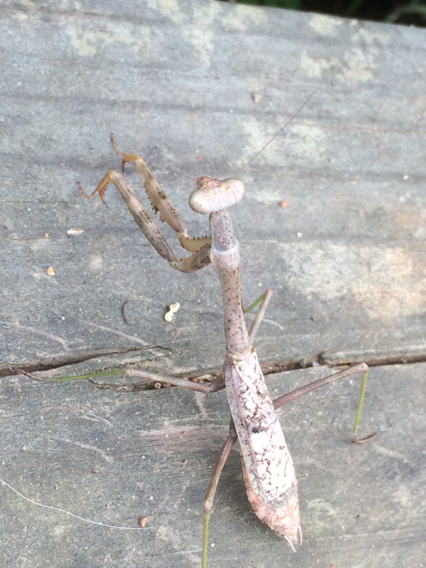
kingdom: Animalia
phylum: Arthropoda
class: Insecta
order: Mantodea
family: Mantidae
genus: Stagmomantis
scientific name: Stagmomantis carolina
